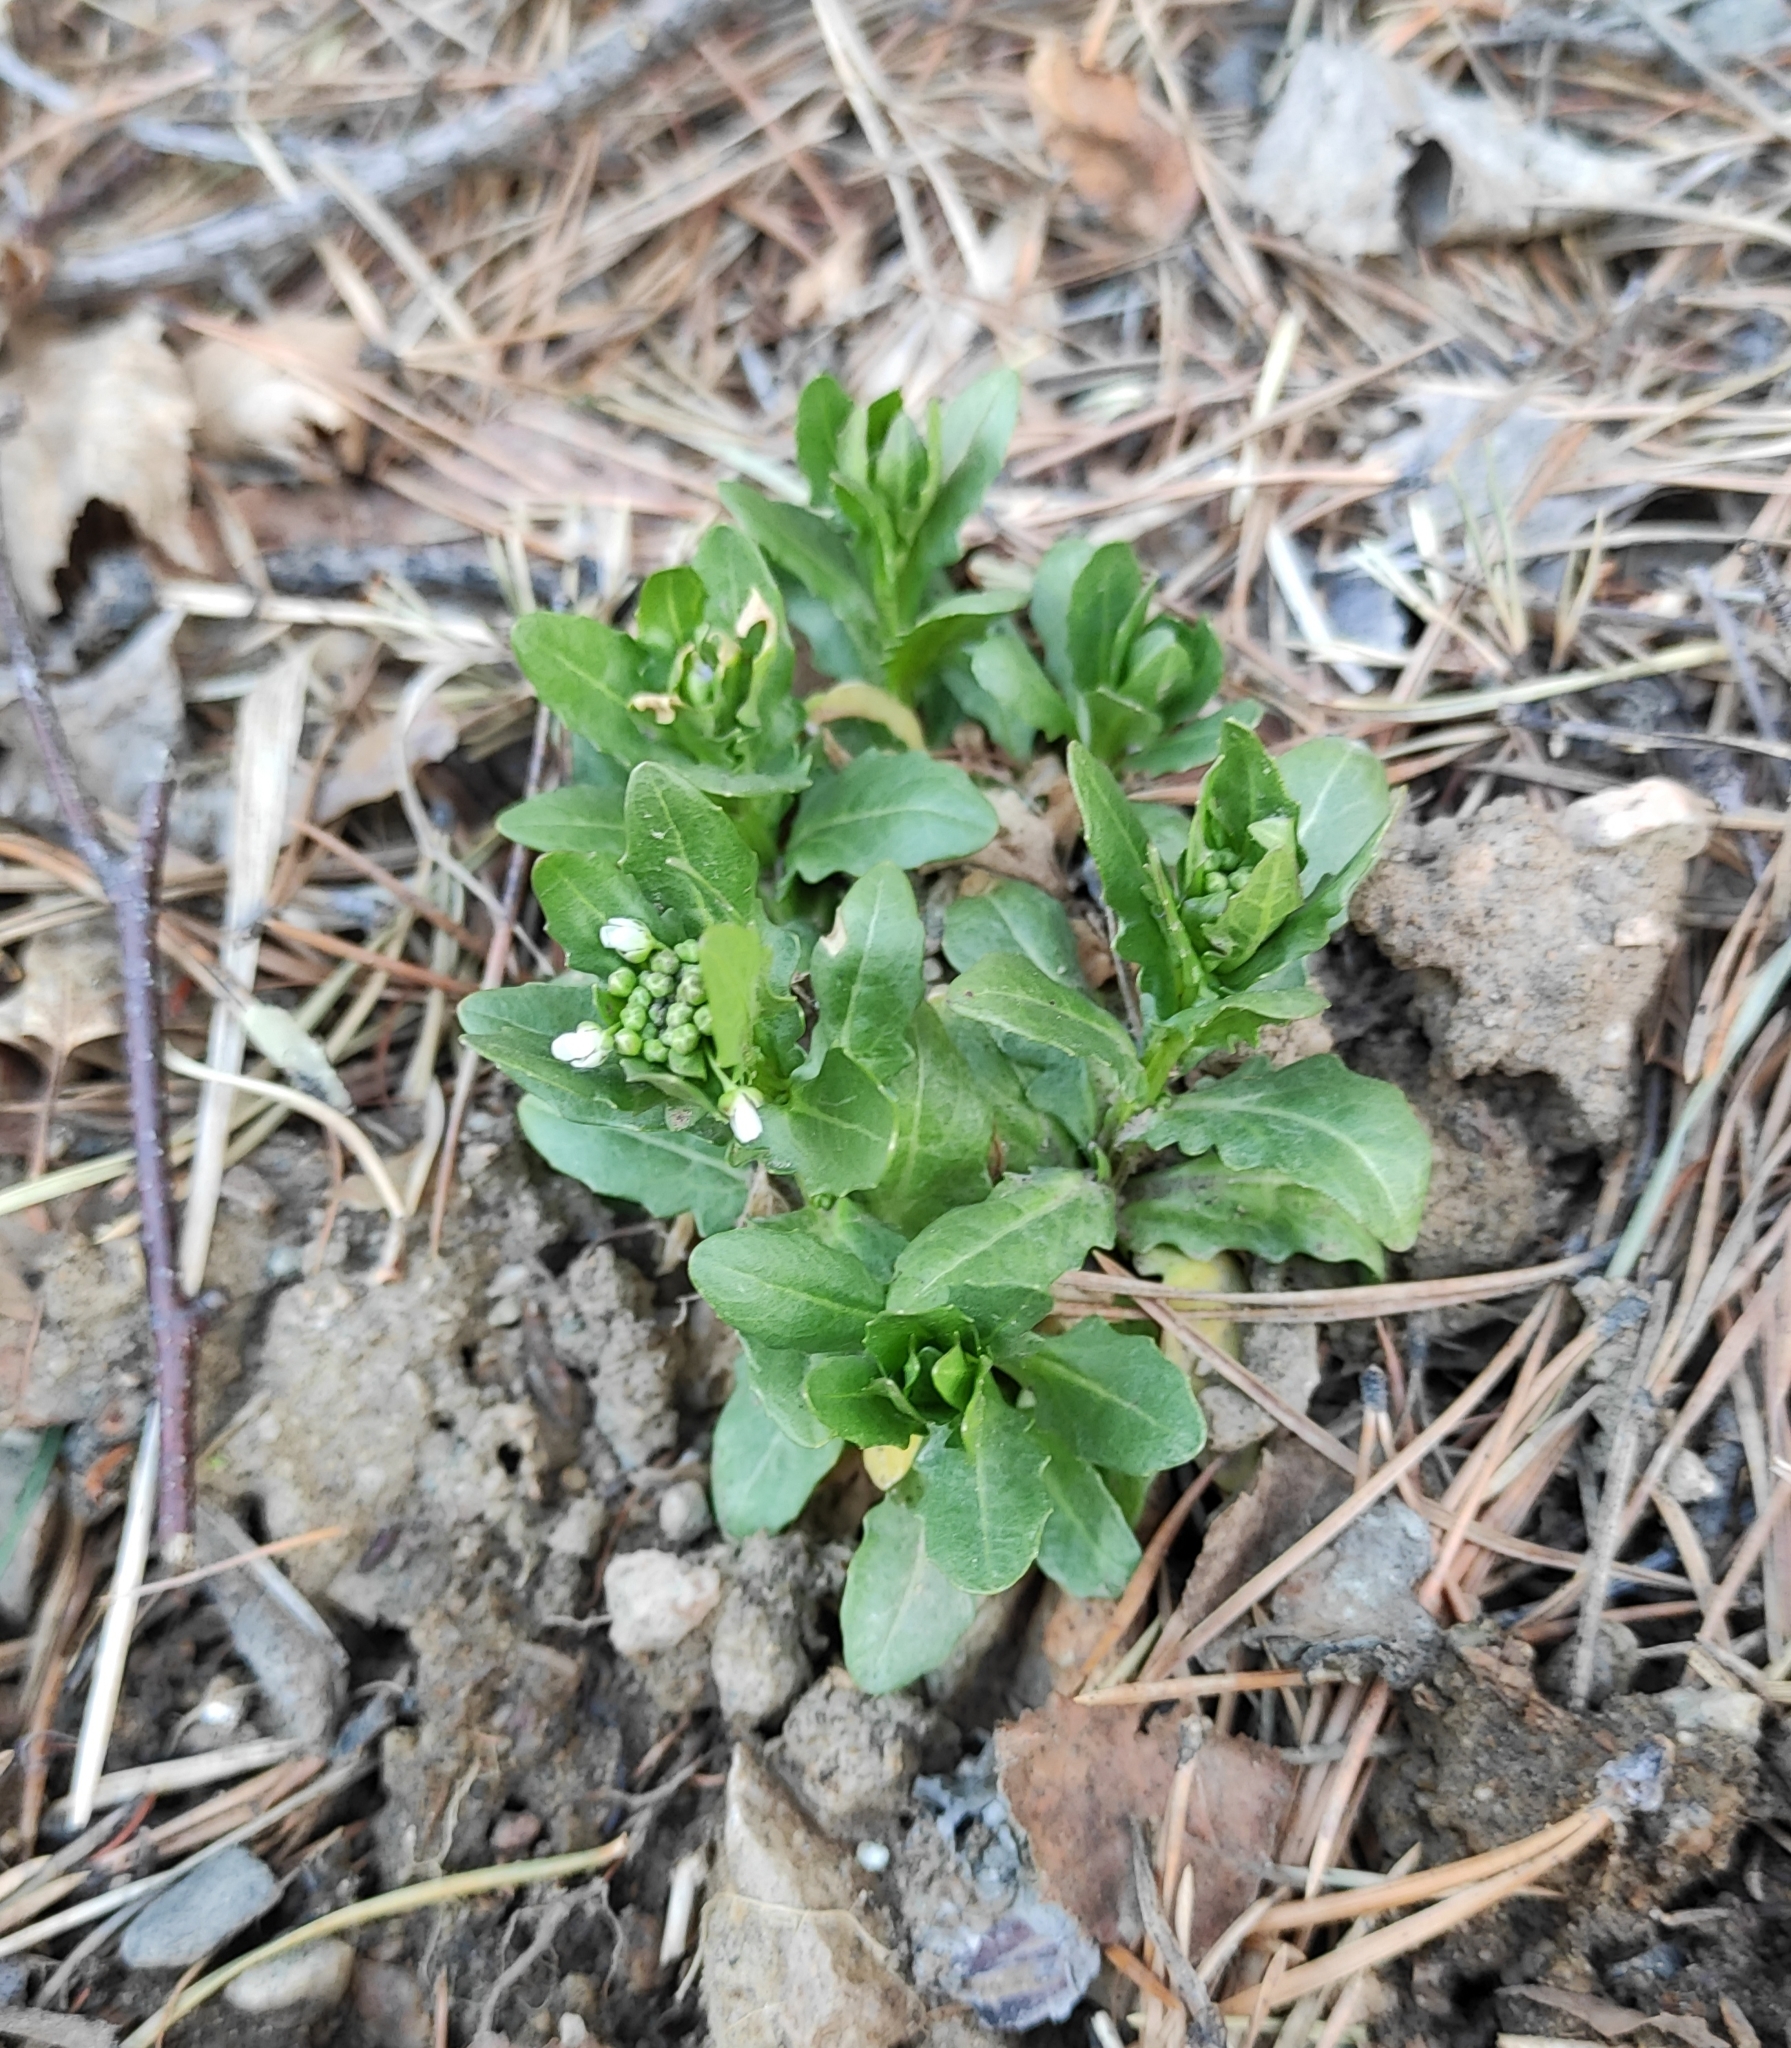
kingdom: Plantae
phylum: Tracheophyta
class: Magnoliopsida
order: Brassicales
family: Brassicaceae
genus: Thlaspi
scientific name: Thlaspi arvense
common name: Field pennycress
